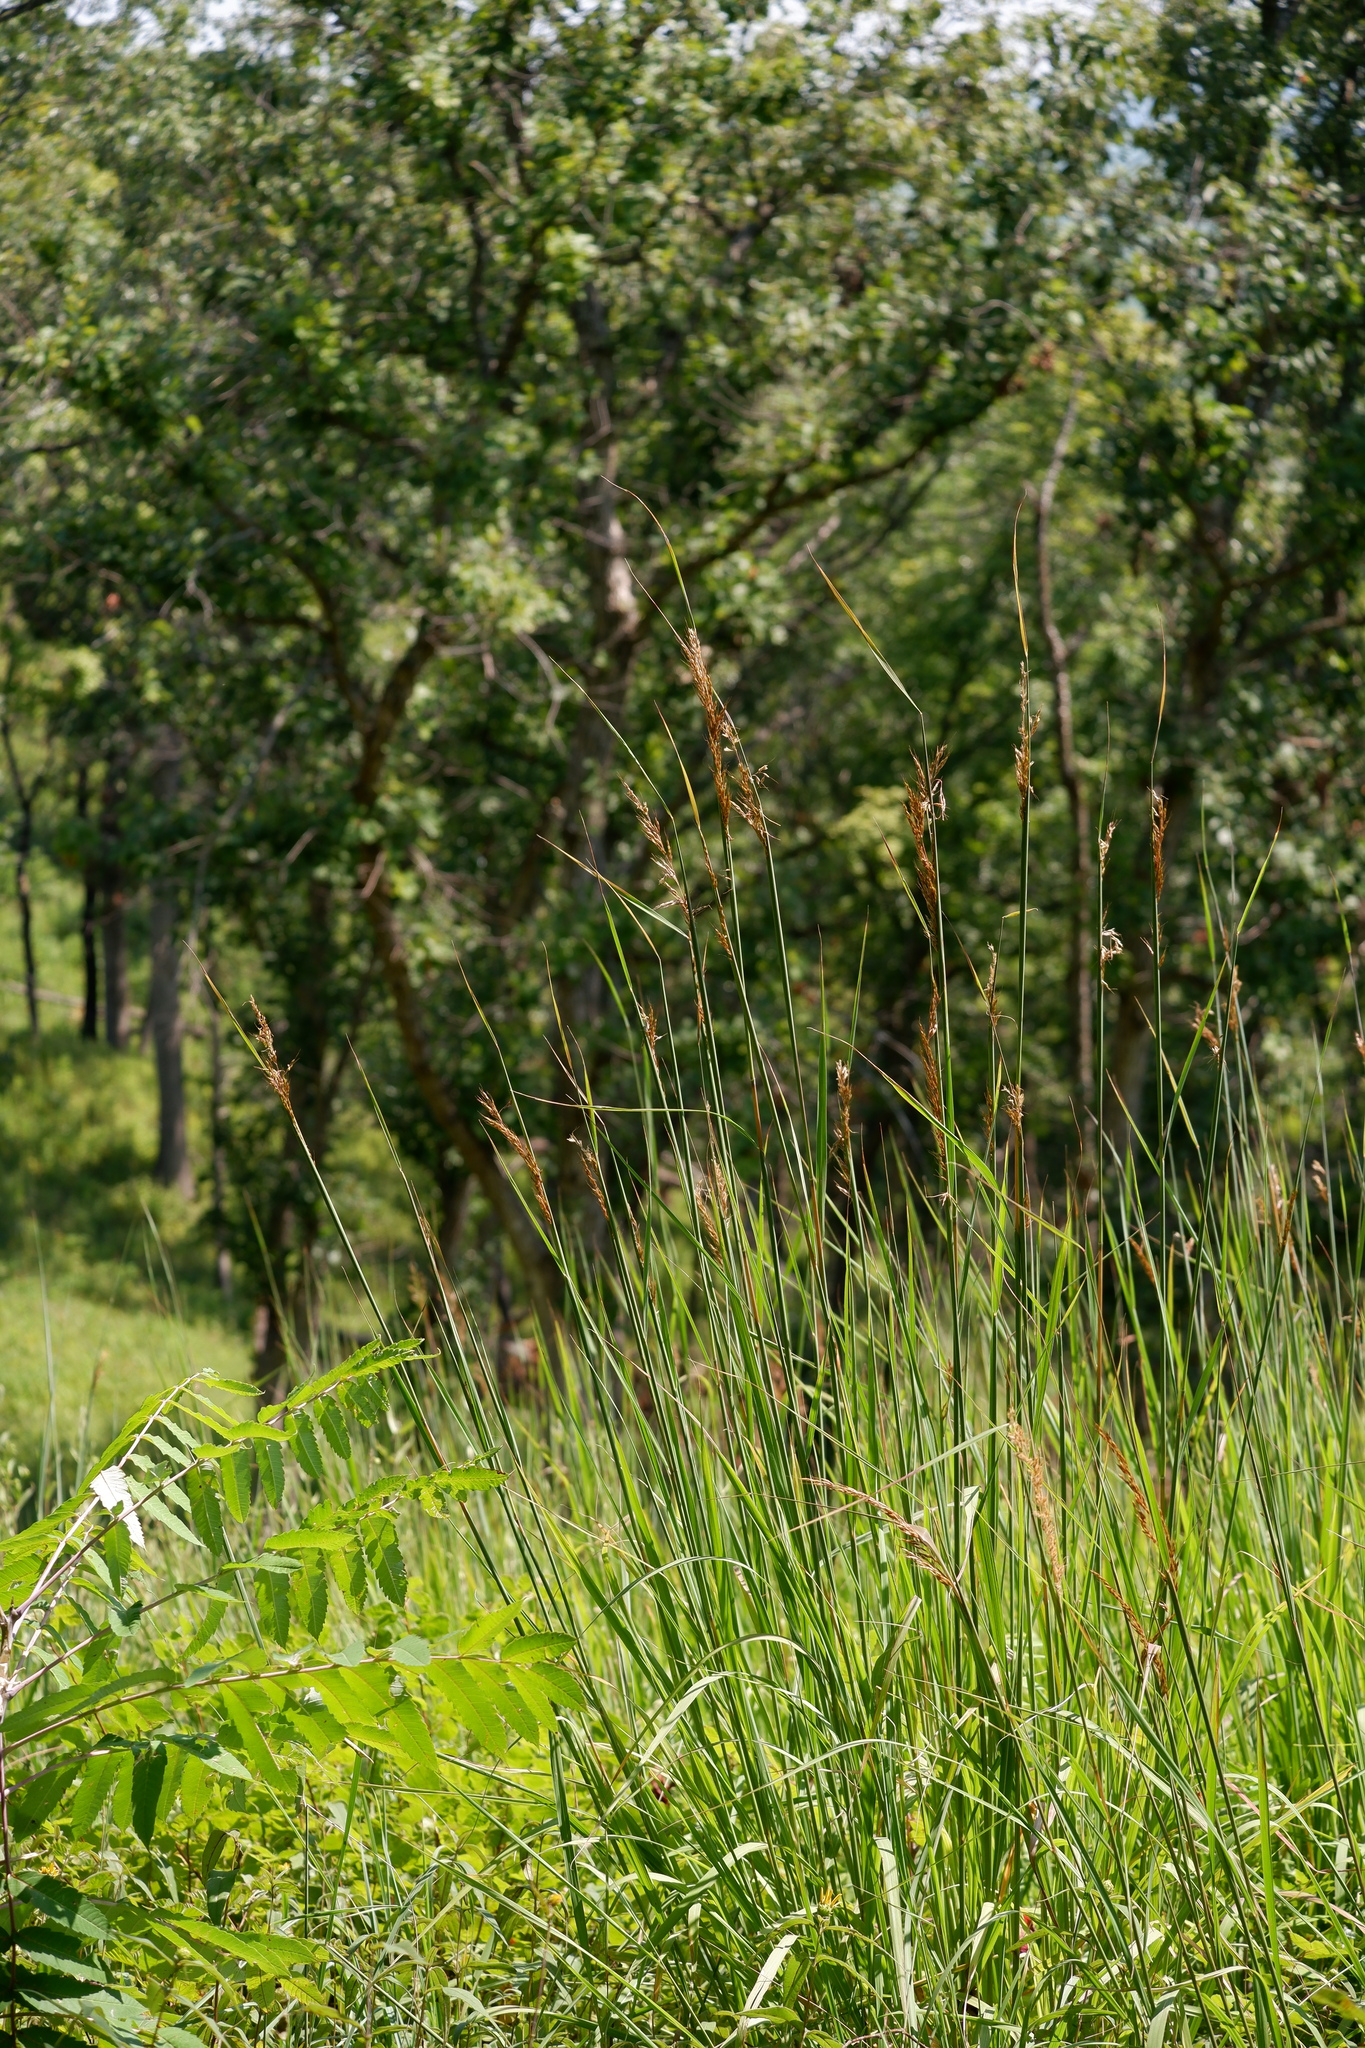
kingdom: Plantae
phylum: Tracheophyta
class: Liliopsida
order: Poales
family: Poaceae
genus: Sorghastrum
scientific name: Sorghastrum nutans
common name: Indian grass
